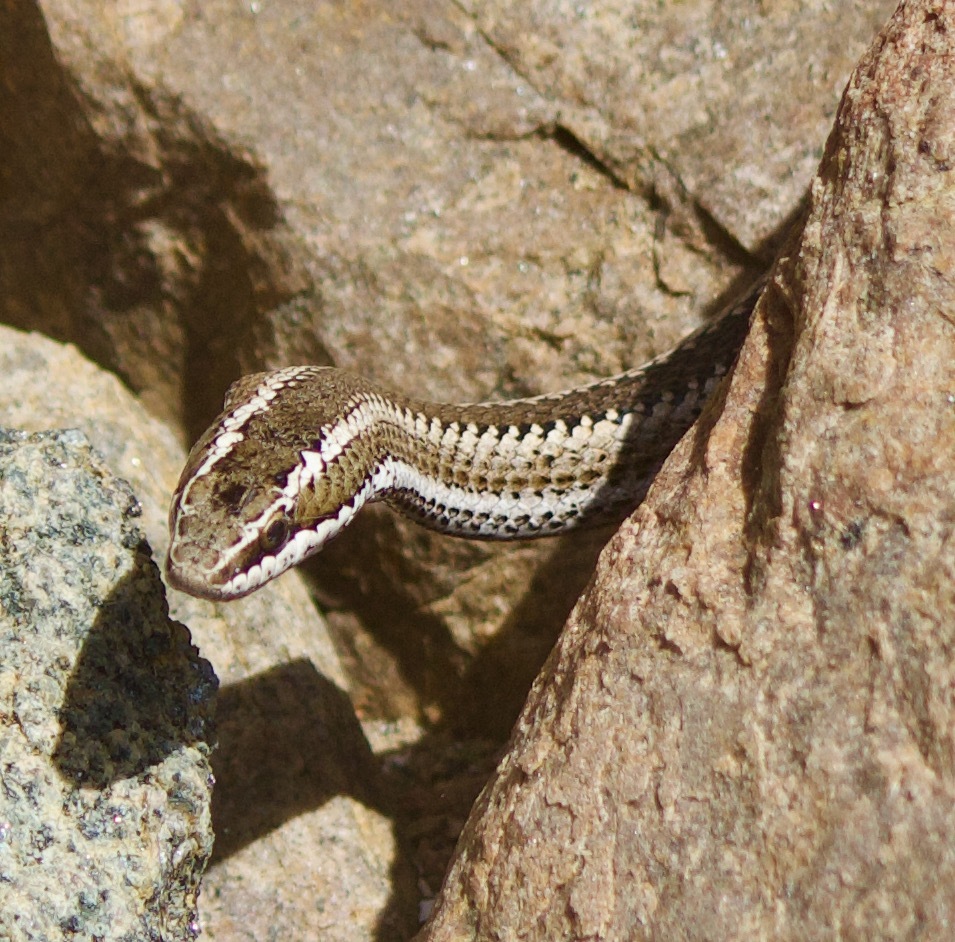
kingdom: Animalia
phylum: Chordata
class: Squamata
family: Colubridae
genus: Philodryas
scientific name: Philodryas chamissonis
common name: Chilean green racer
